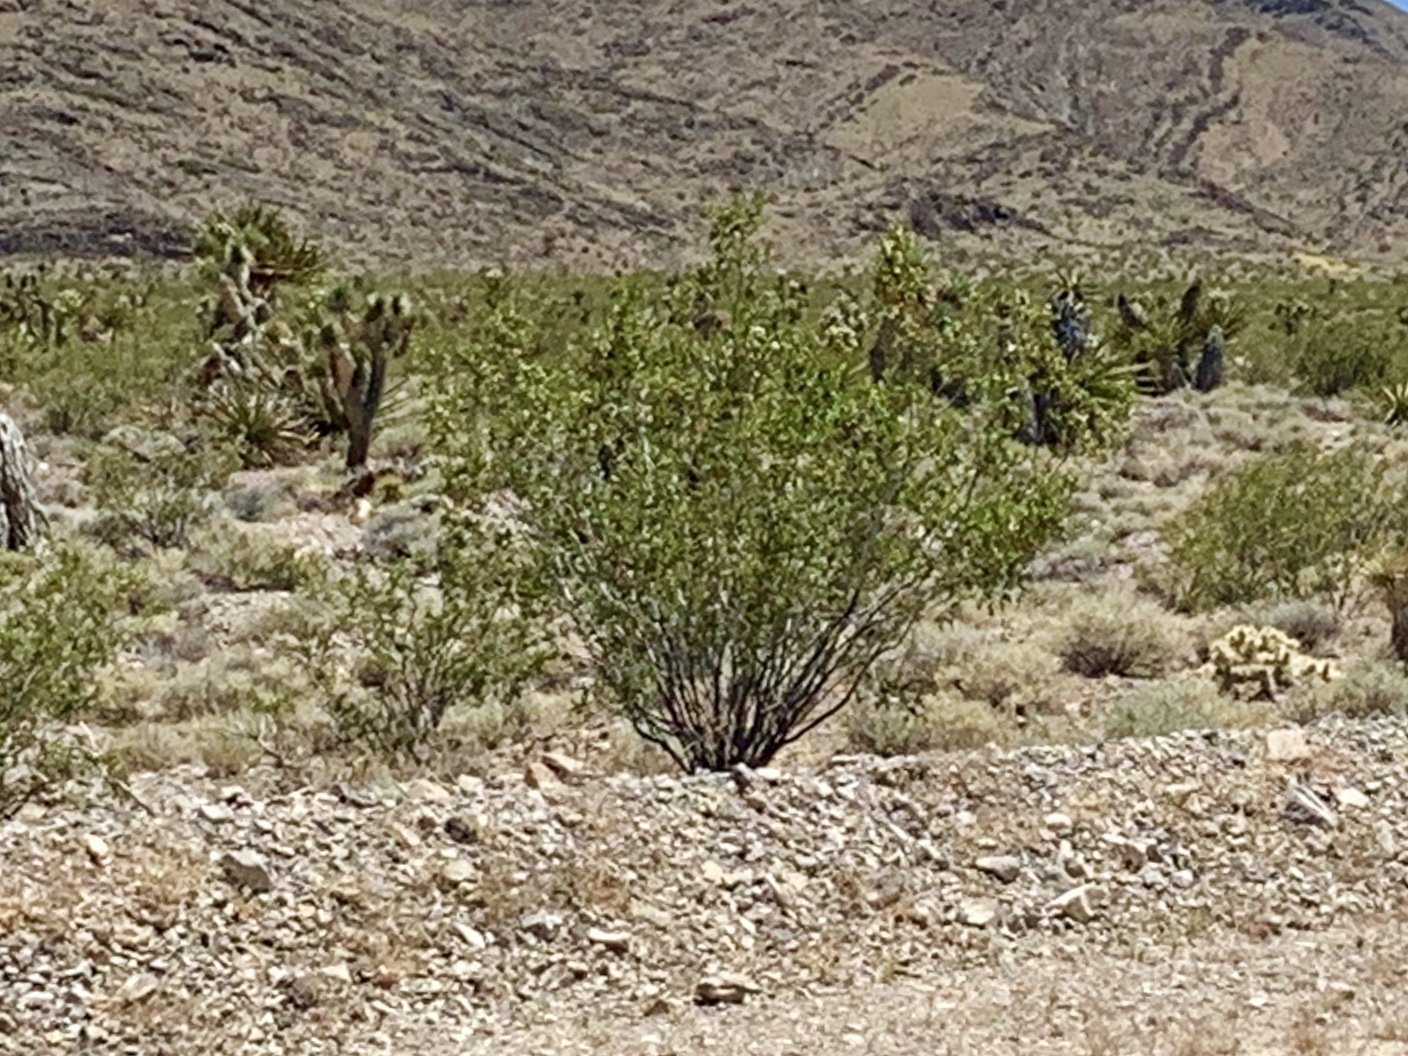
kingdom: Plantae
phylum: Tracheophyta
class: Magnoliopsida
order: Zygophyllales
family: Zygophyllaceae
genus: Larrea
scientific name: Larrea tridentata
